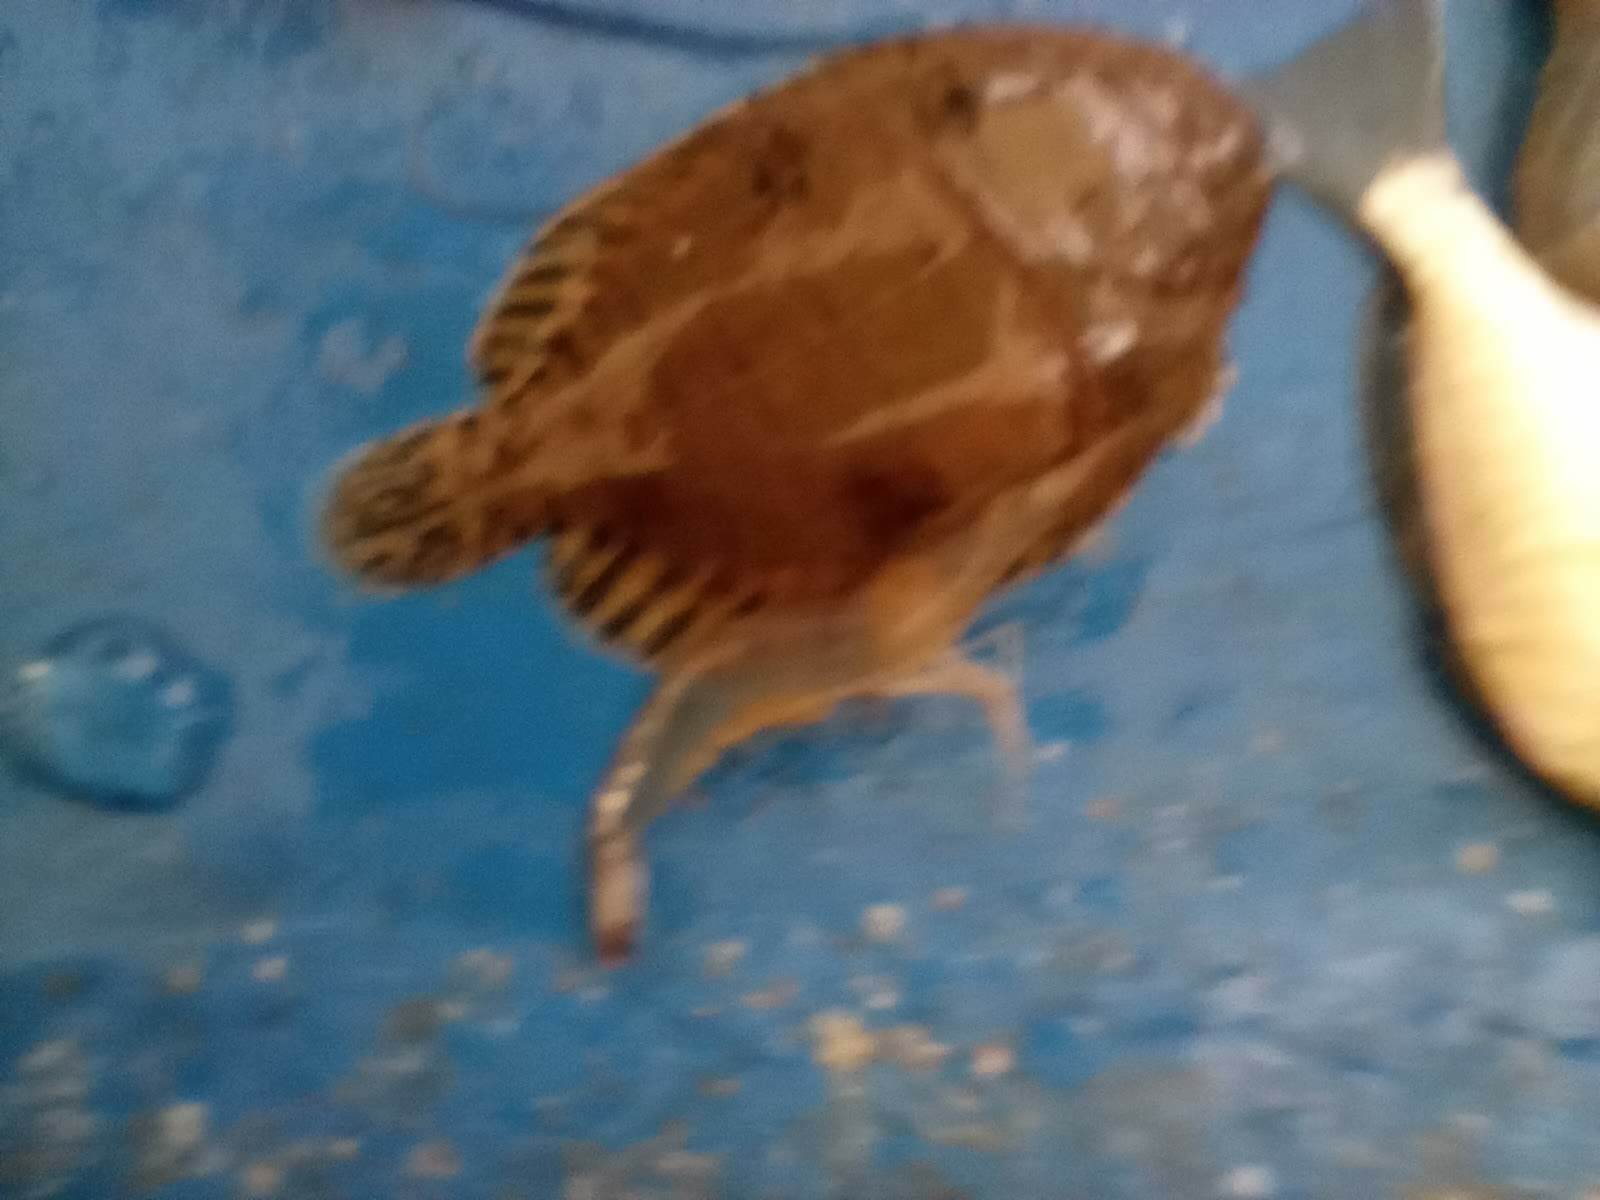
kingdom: Animalia
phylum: Chordata
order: Pleuronectiformes
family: Achiridae
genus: Trinectes
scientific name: Trinectes maculatus
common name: Hogchoker
